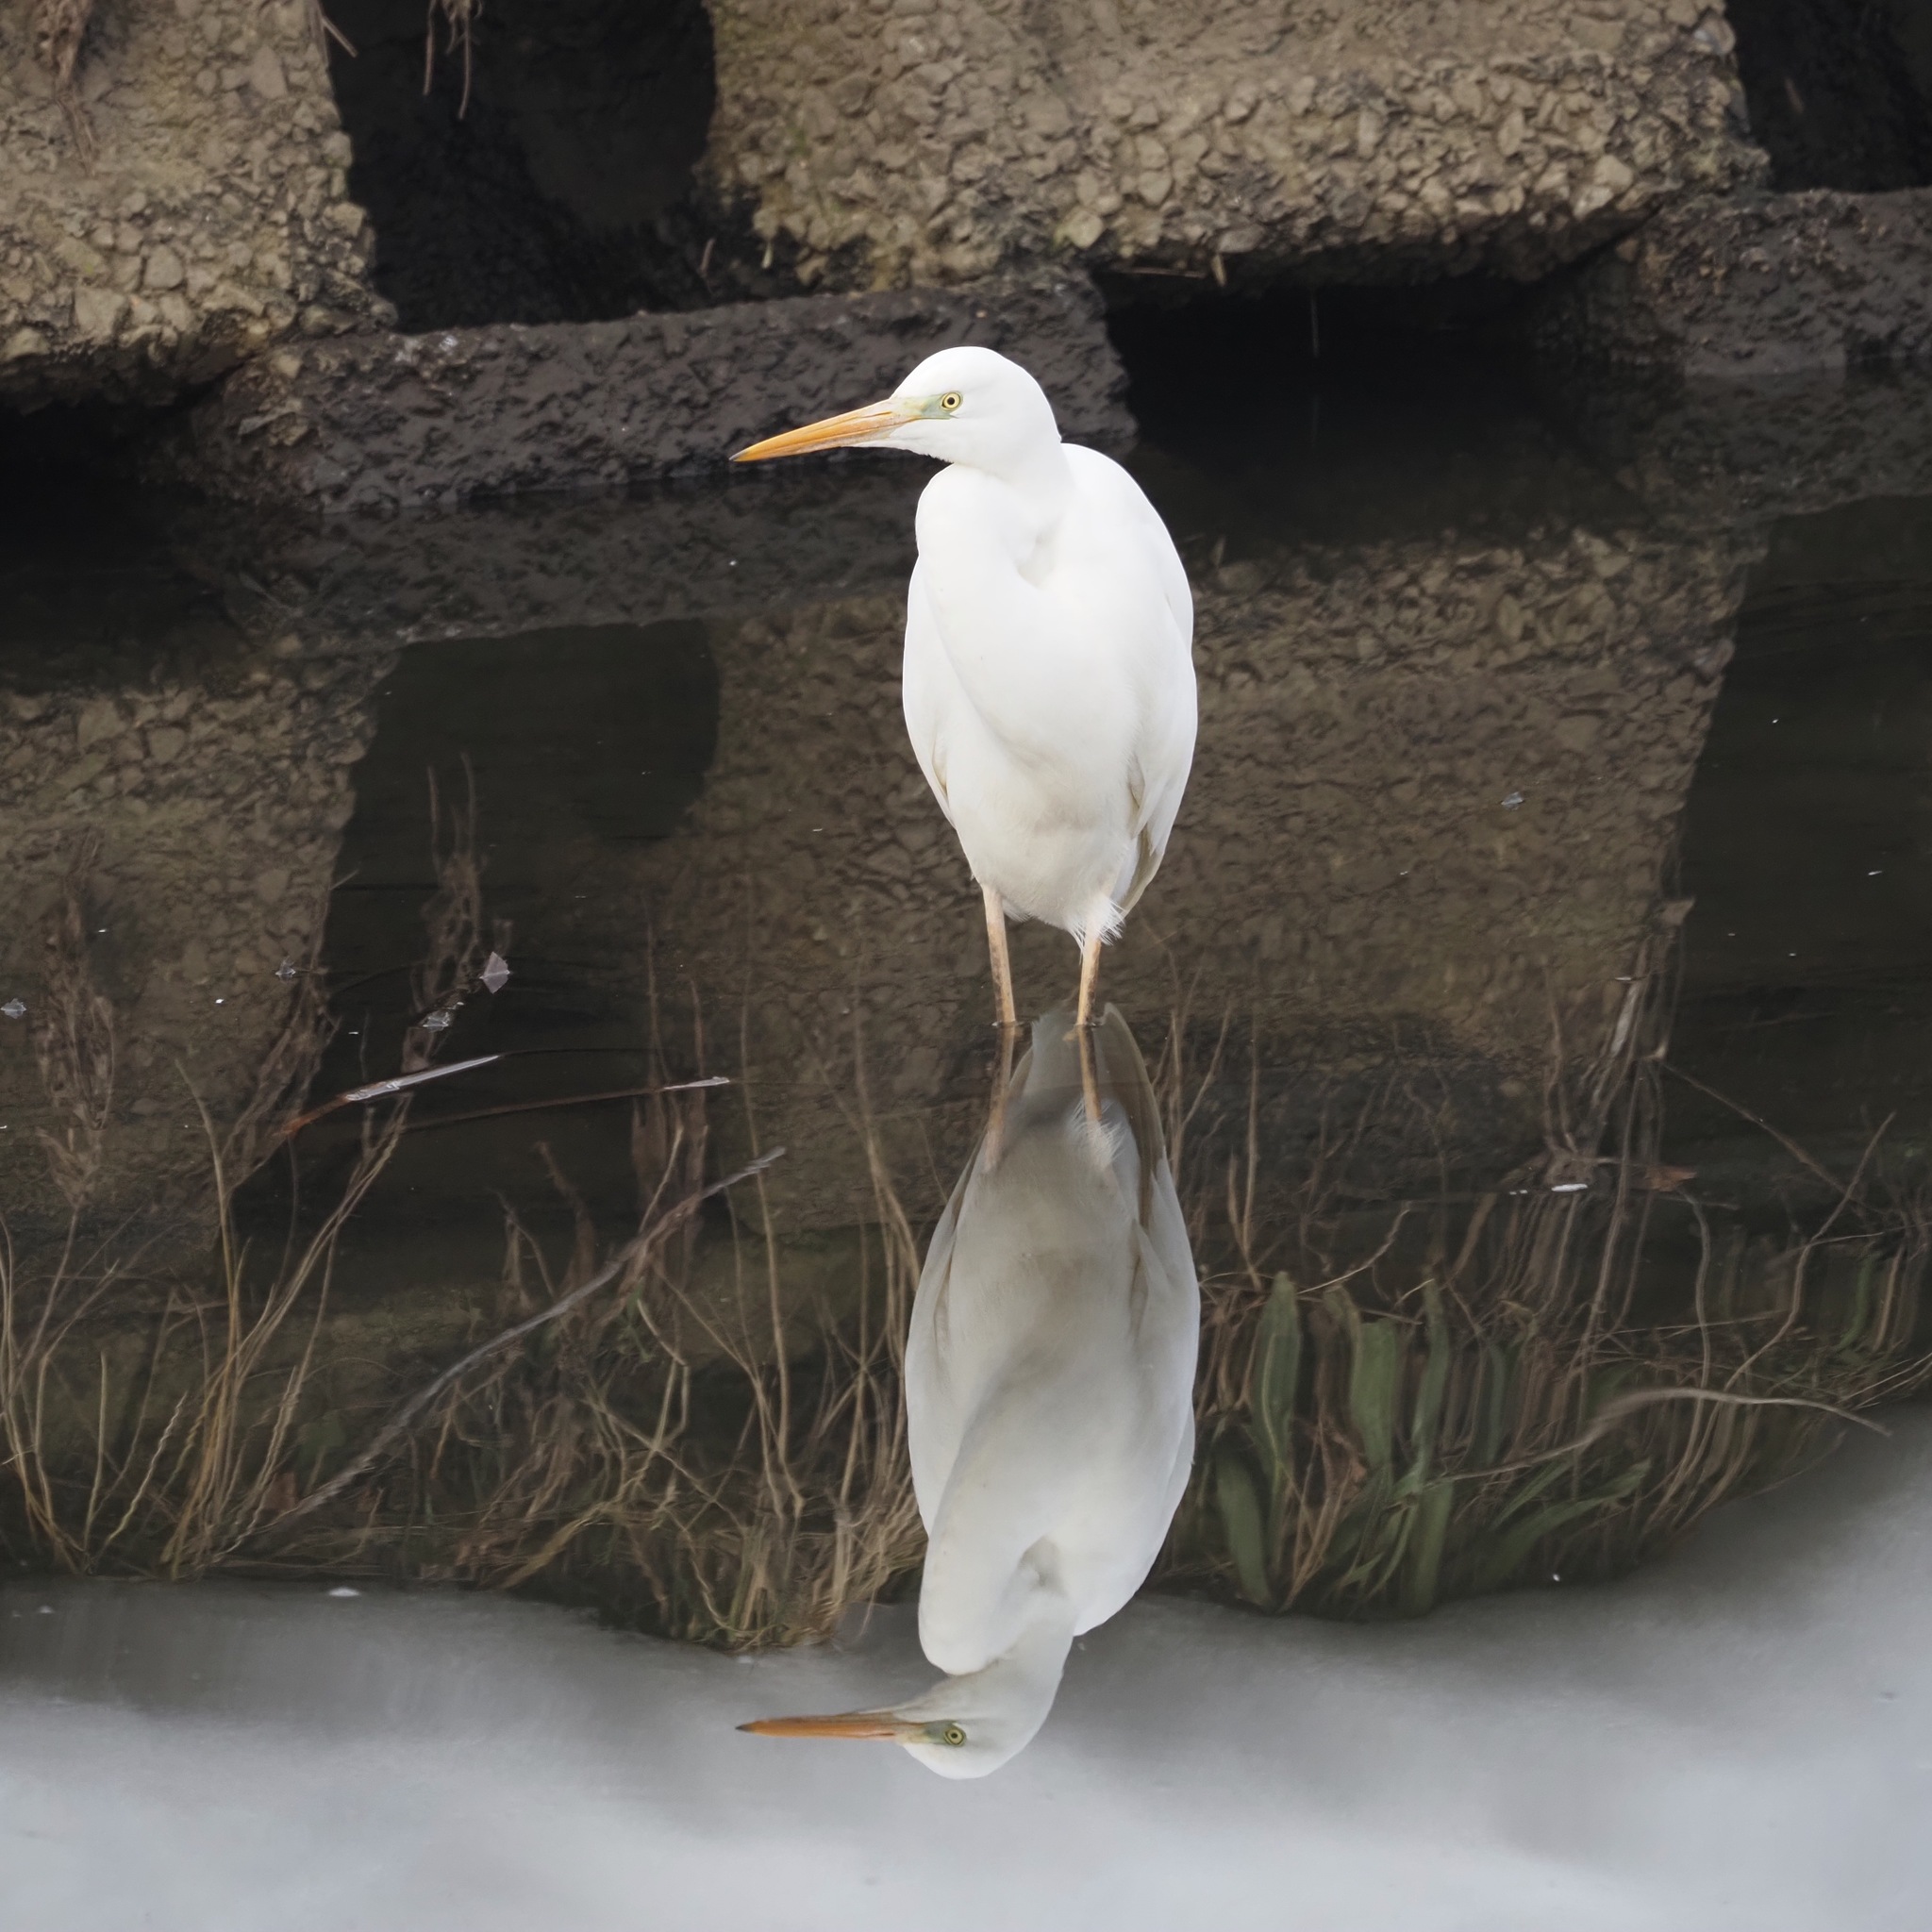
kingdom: Animalia
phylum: Chordata
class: Aves
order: Pelecaniformes
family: Ardeidae
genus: Ardea
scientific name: Ardea alba
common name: Great egret
